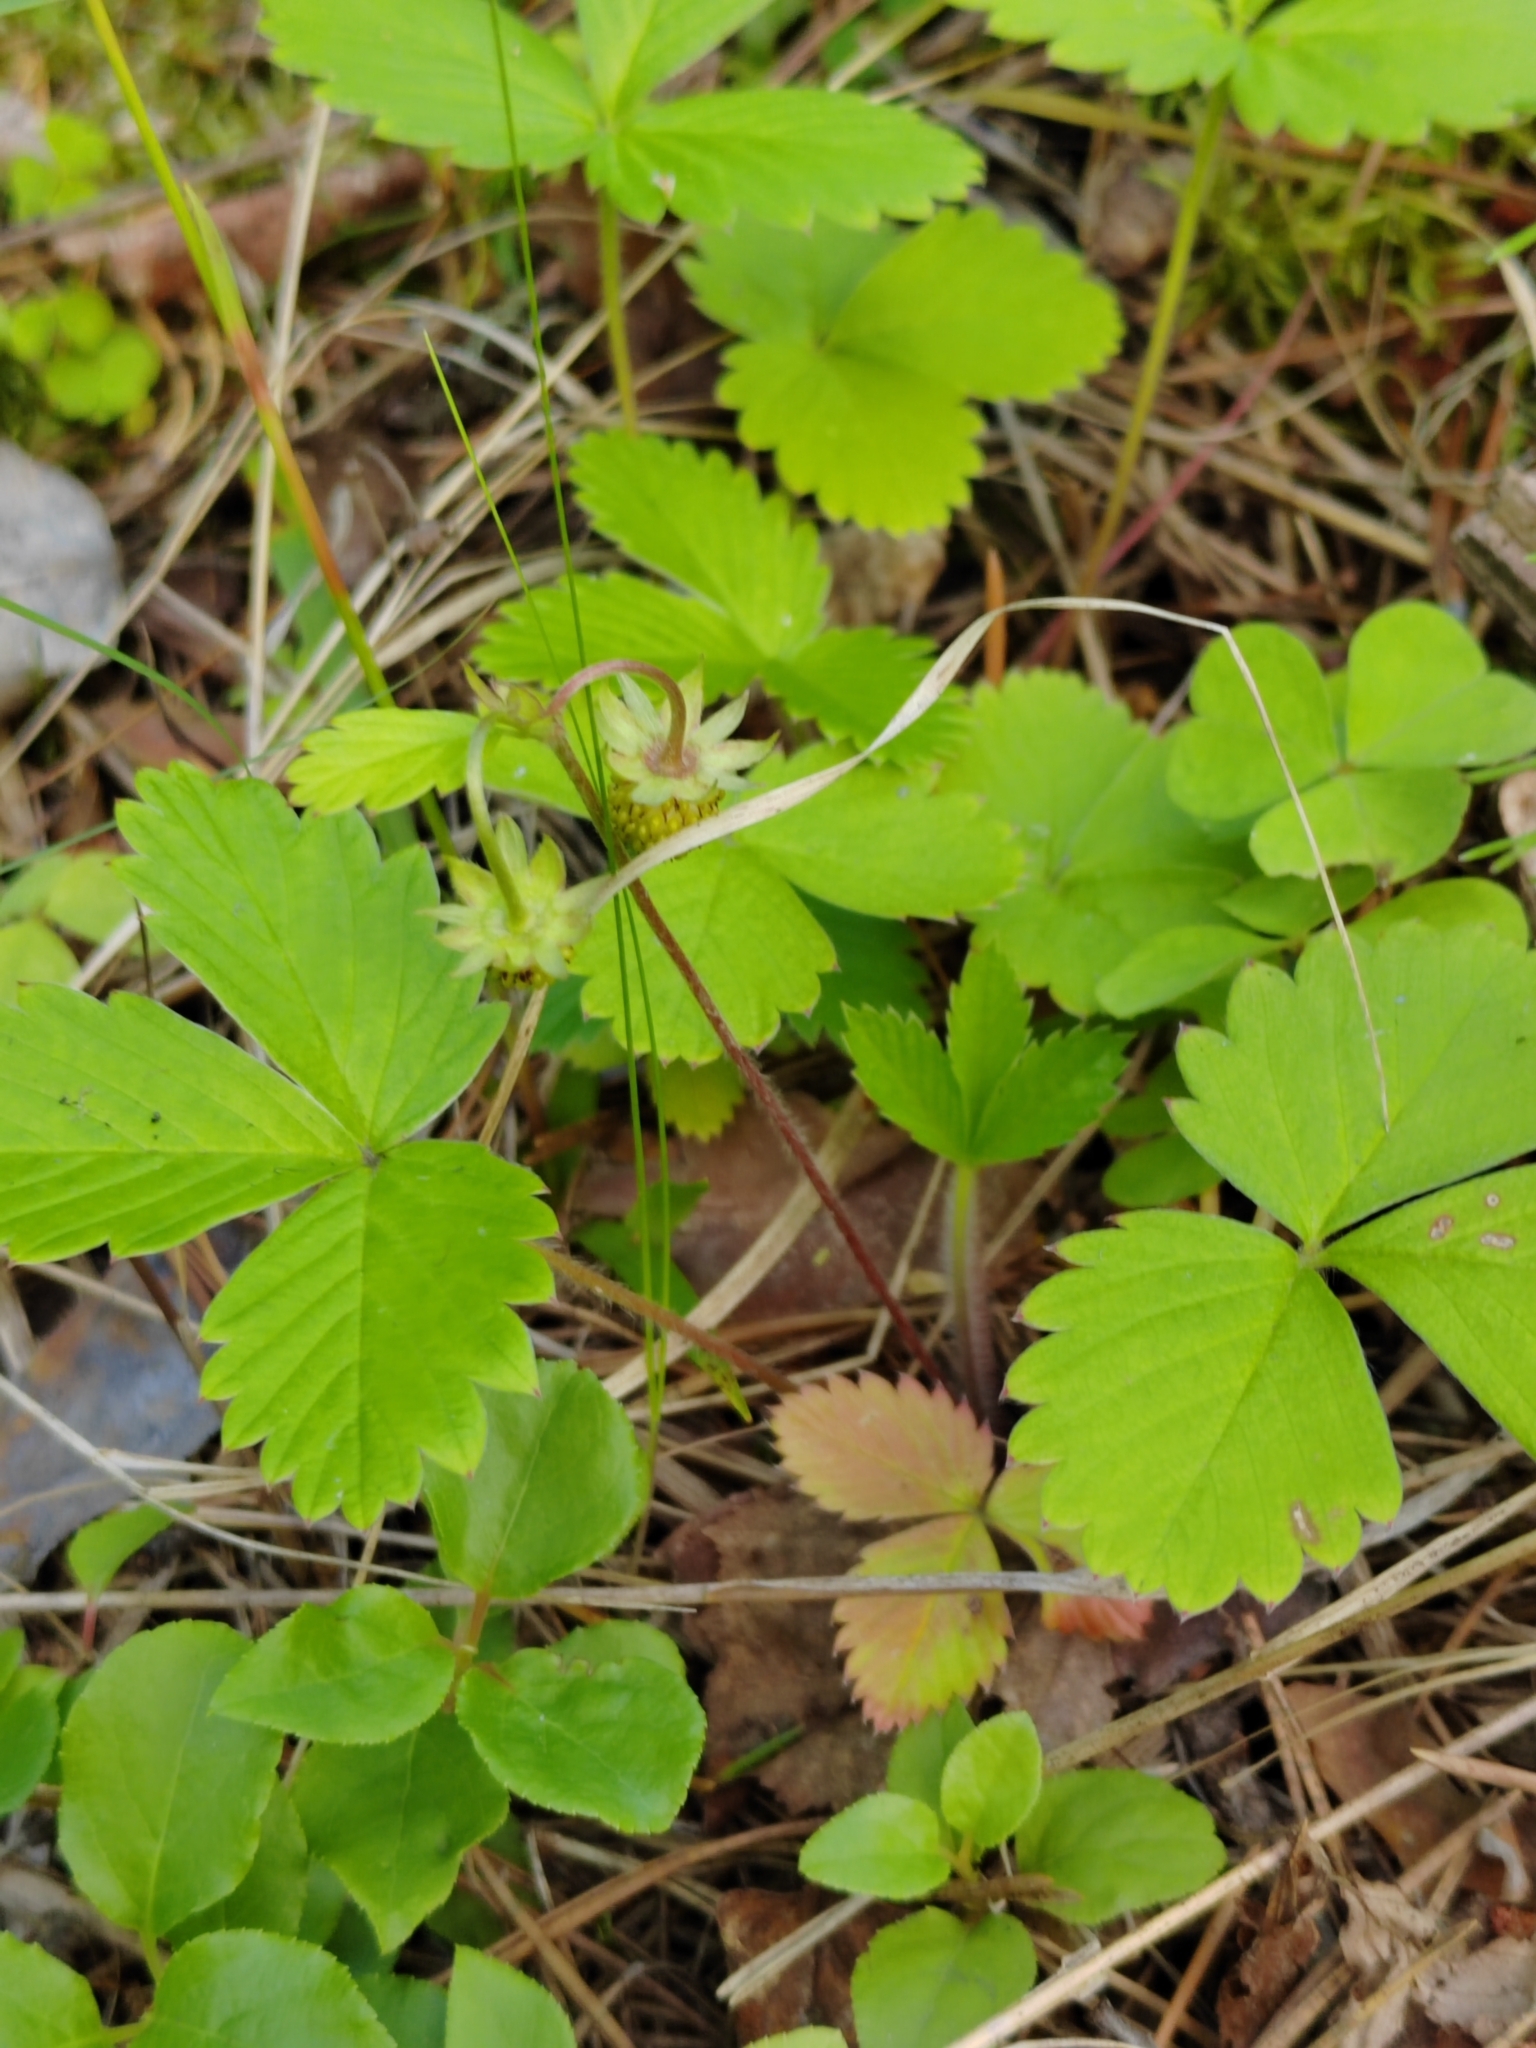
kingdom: Plantae
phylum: Tracheophyta
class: Magnoliopsida
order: Rosales
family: Rosaceae
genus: Fragaria
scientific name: Fragaria vesca
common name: Wild strawberry
